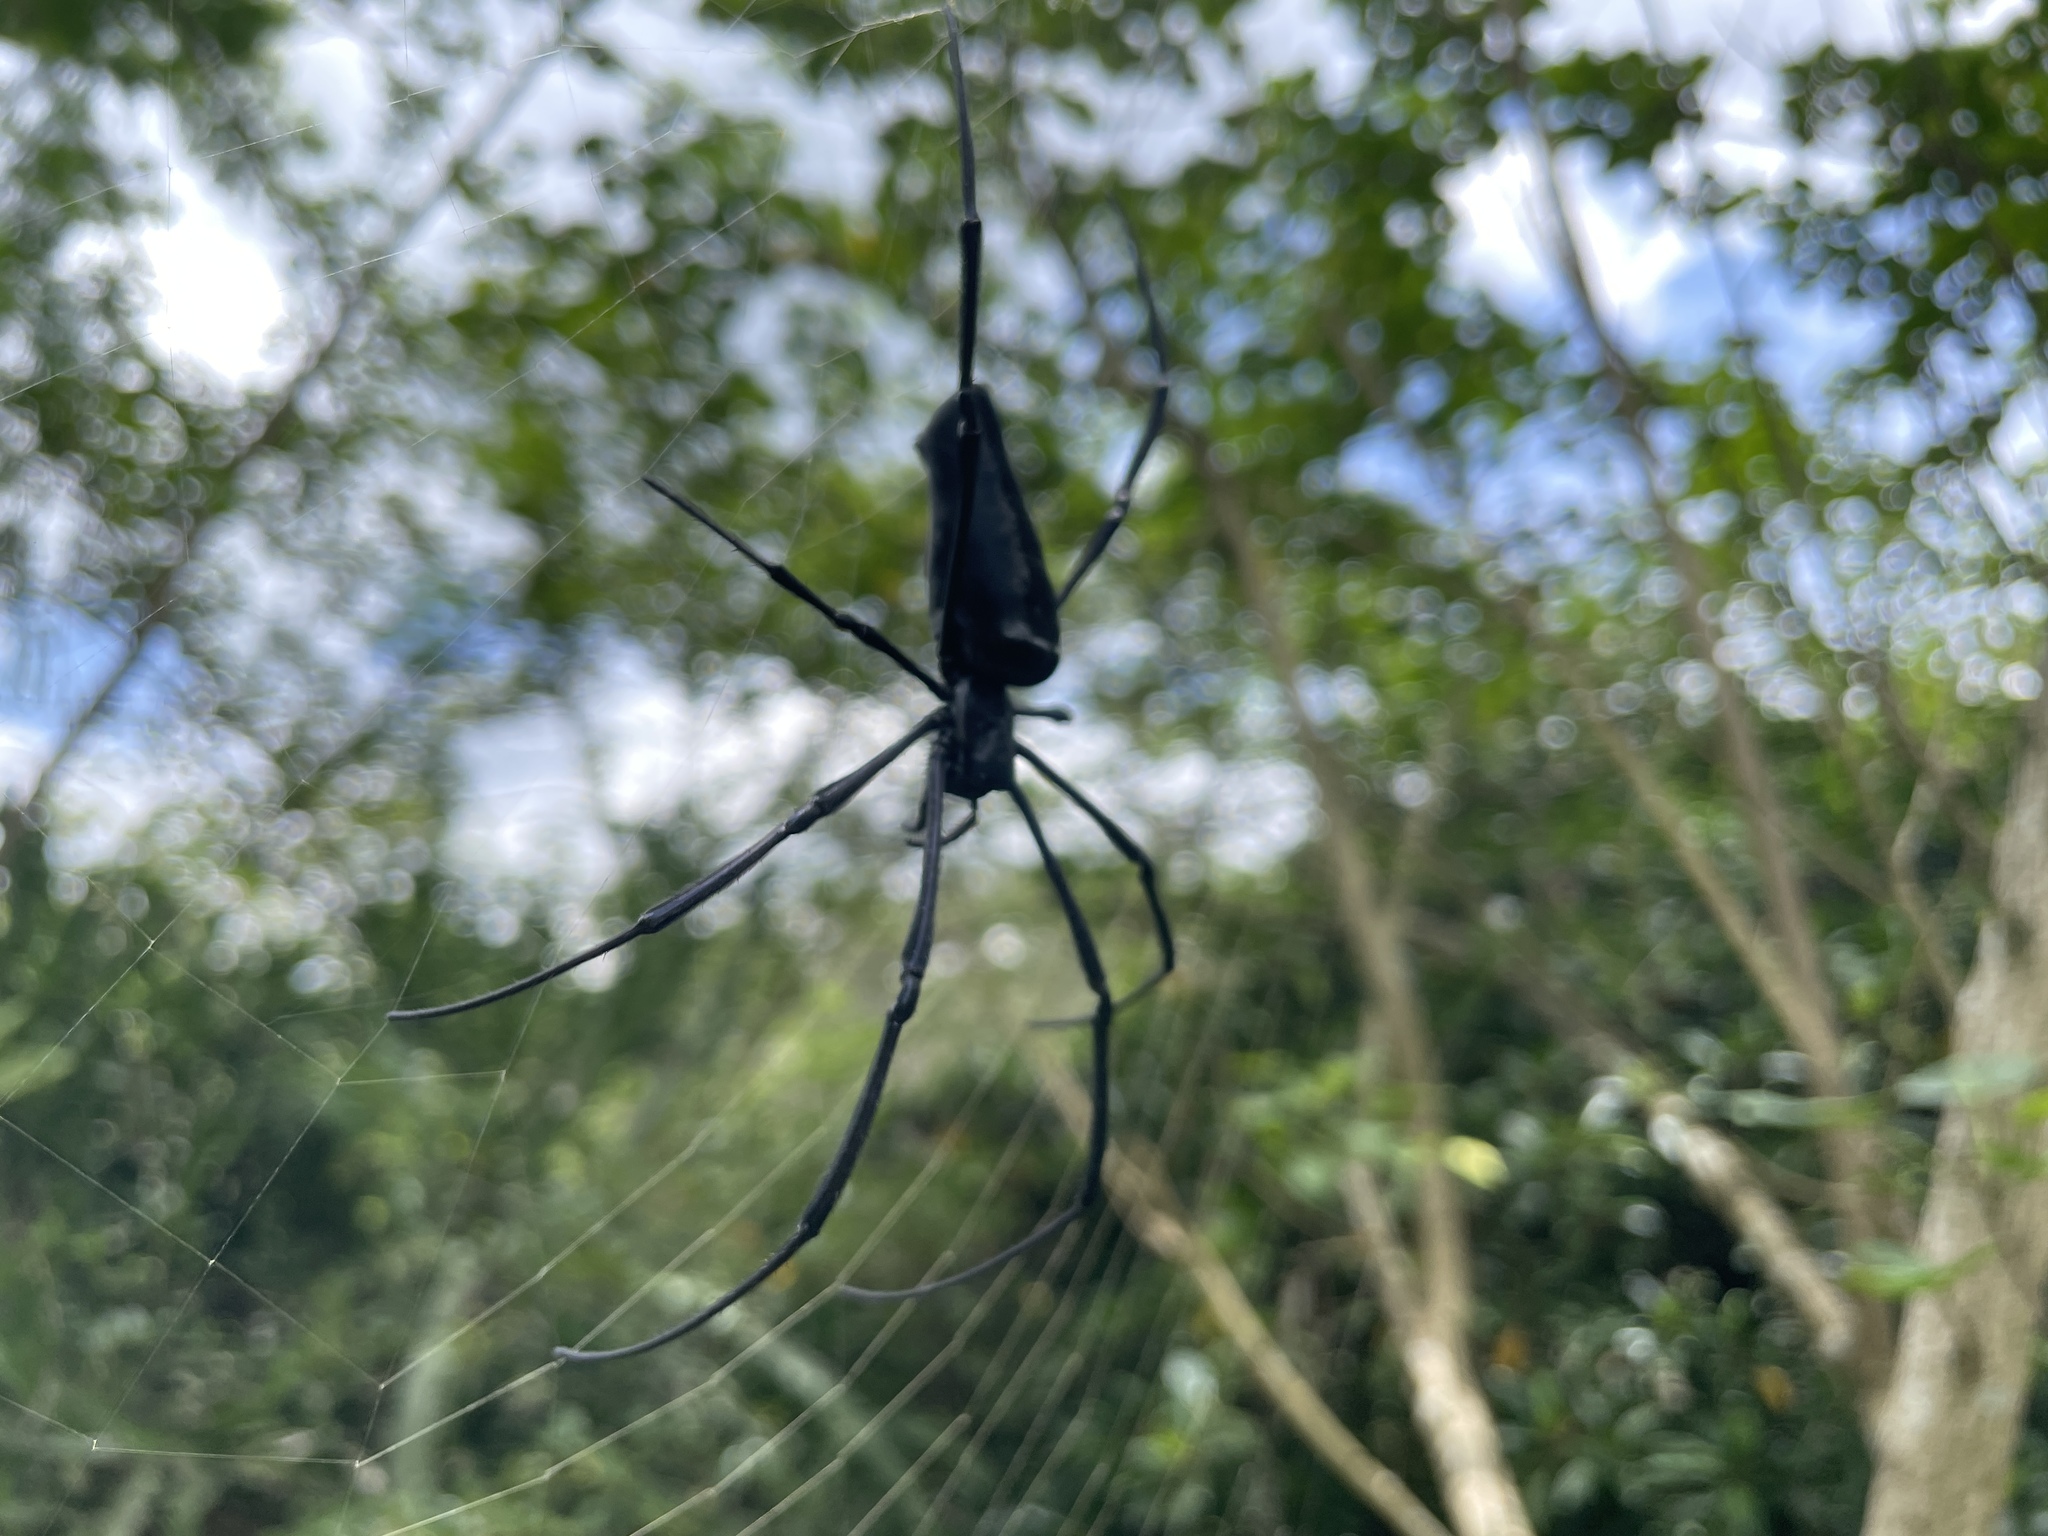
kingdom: Animalia
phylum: Arthropoda
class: Arachnida
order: Araneae
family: Araneidae
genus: Nephila
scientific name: Nephila pilipes
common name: Giant golden orb weaver
